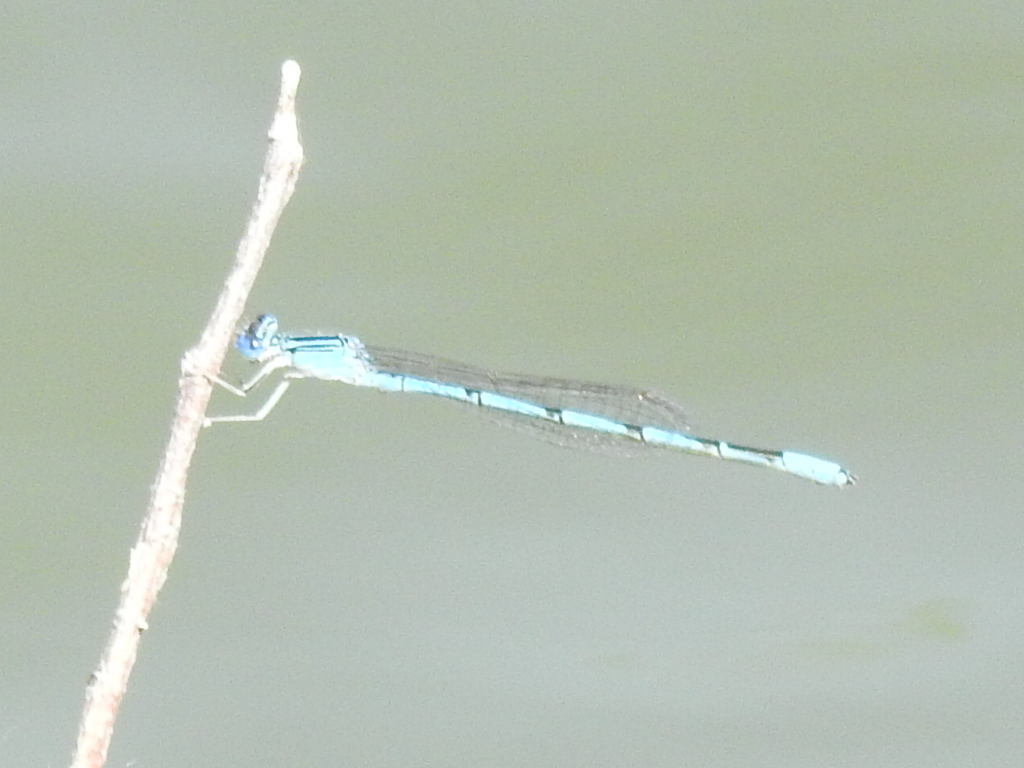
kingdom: Animalia
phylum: Arthropoda
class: Insecta
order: Odonata
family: Coenagrionidae
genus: Enallagma
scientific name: Enallagma basidens
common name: Double-striped bluet
